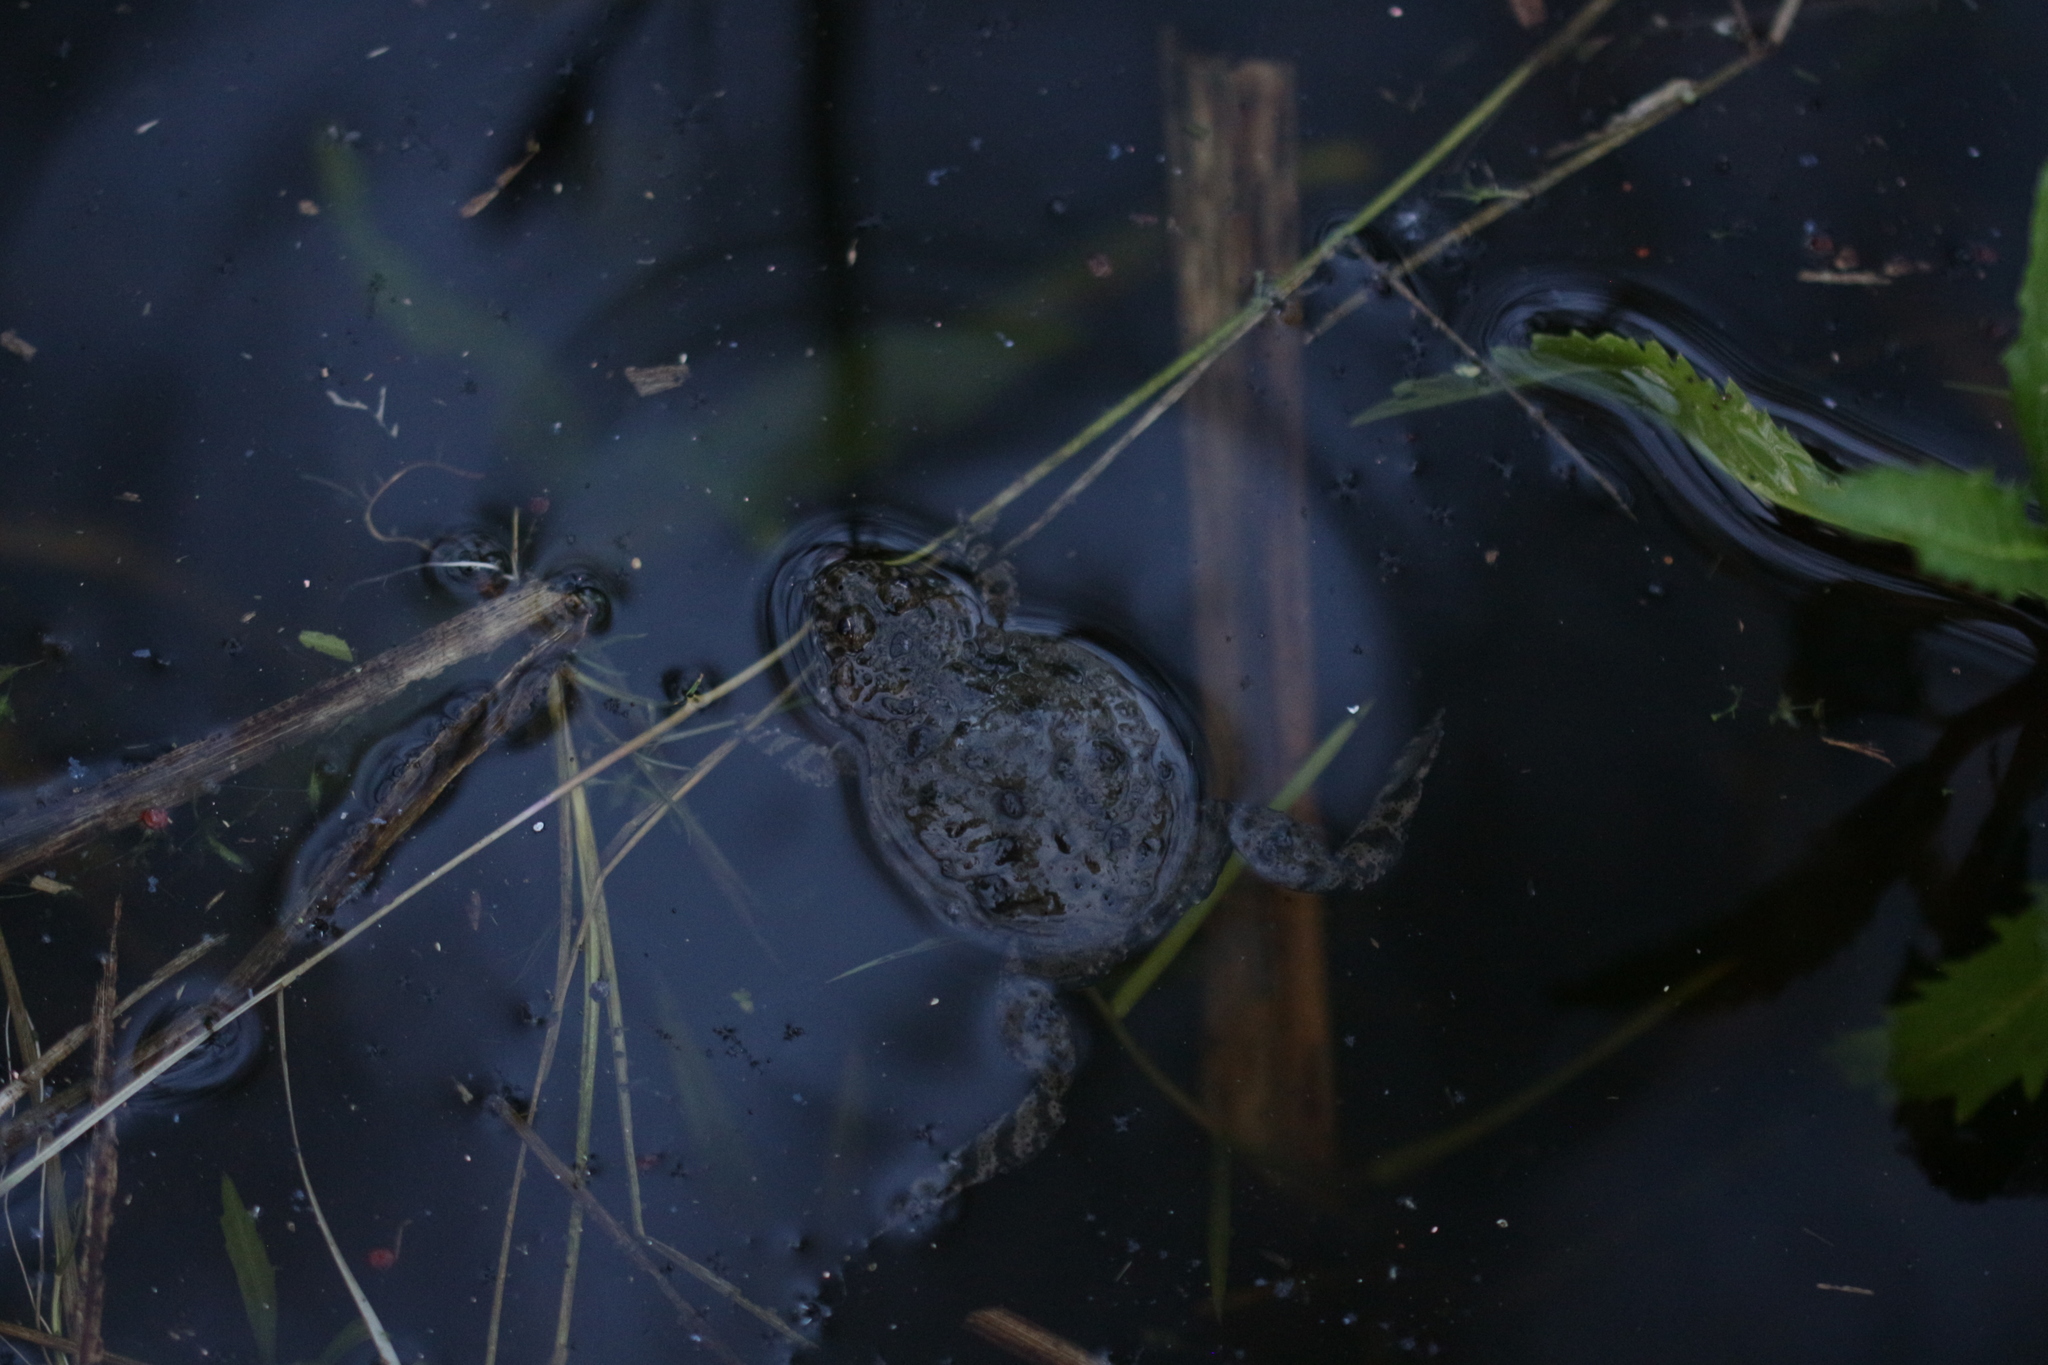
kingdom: Animalia
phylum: Chordata
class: Amphibia
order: Anura
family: Bombinatoridae
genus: Bombina
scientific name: Bombina bombina
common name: Fire-bellied toad
